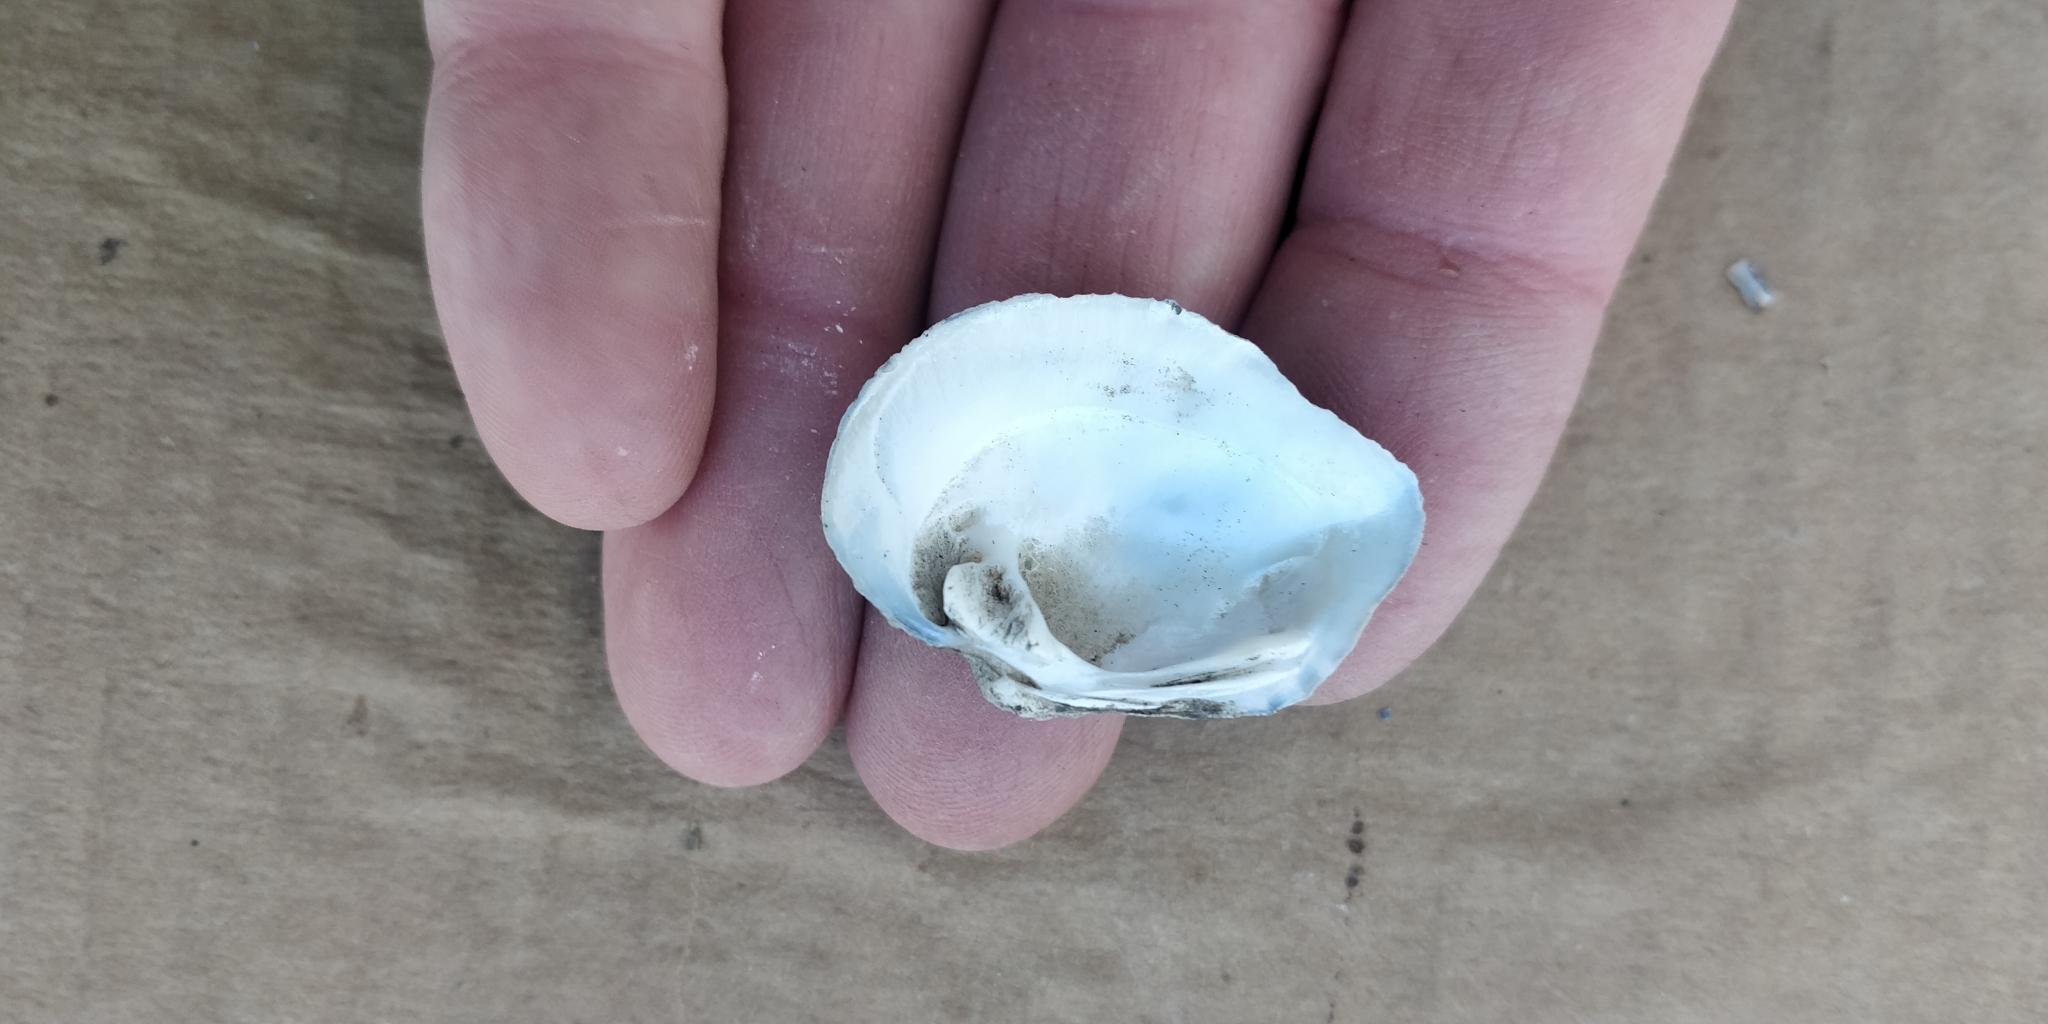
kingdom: Animalia
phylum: Mollusca
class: Bivalvia
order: Unionida
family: Unionidae
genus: Quadrula
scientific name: Quadrula quadrula
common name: Mapleleaf
